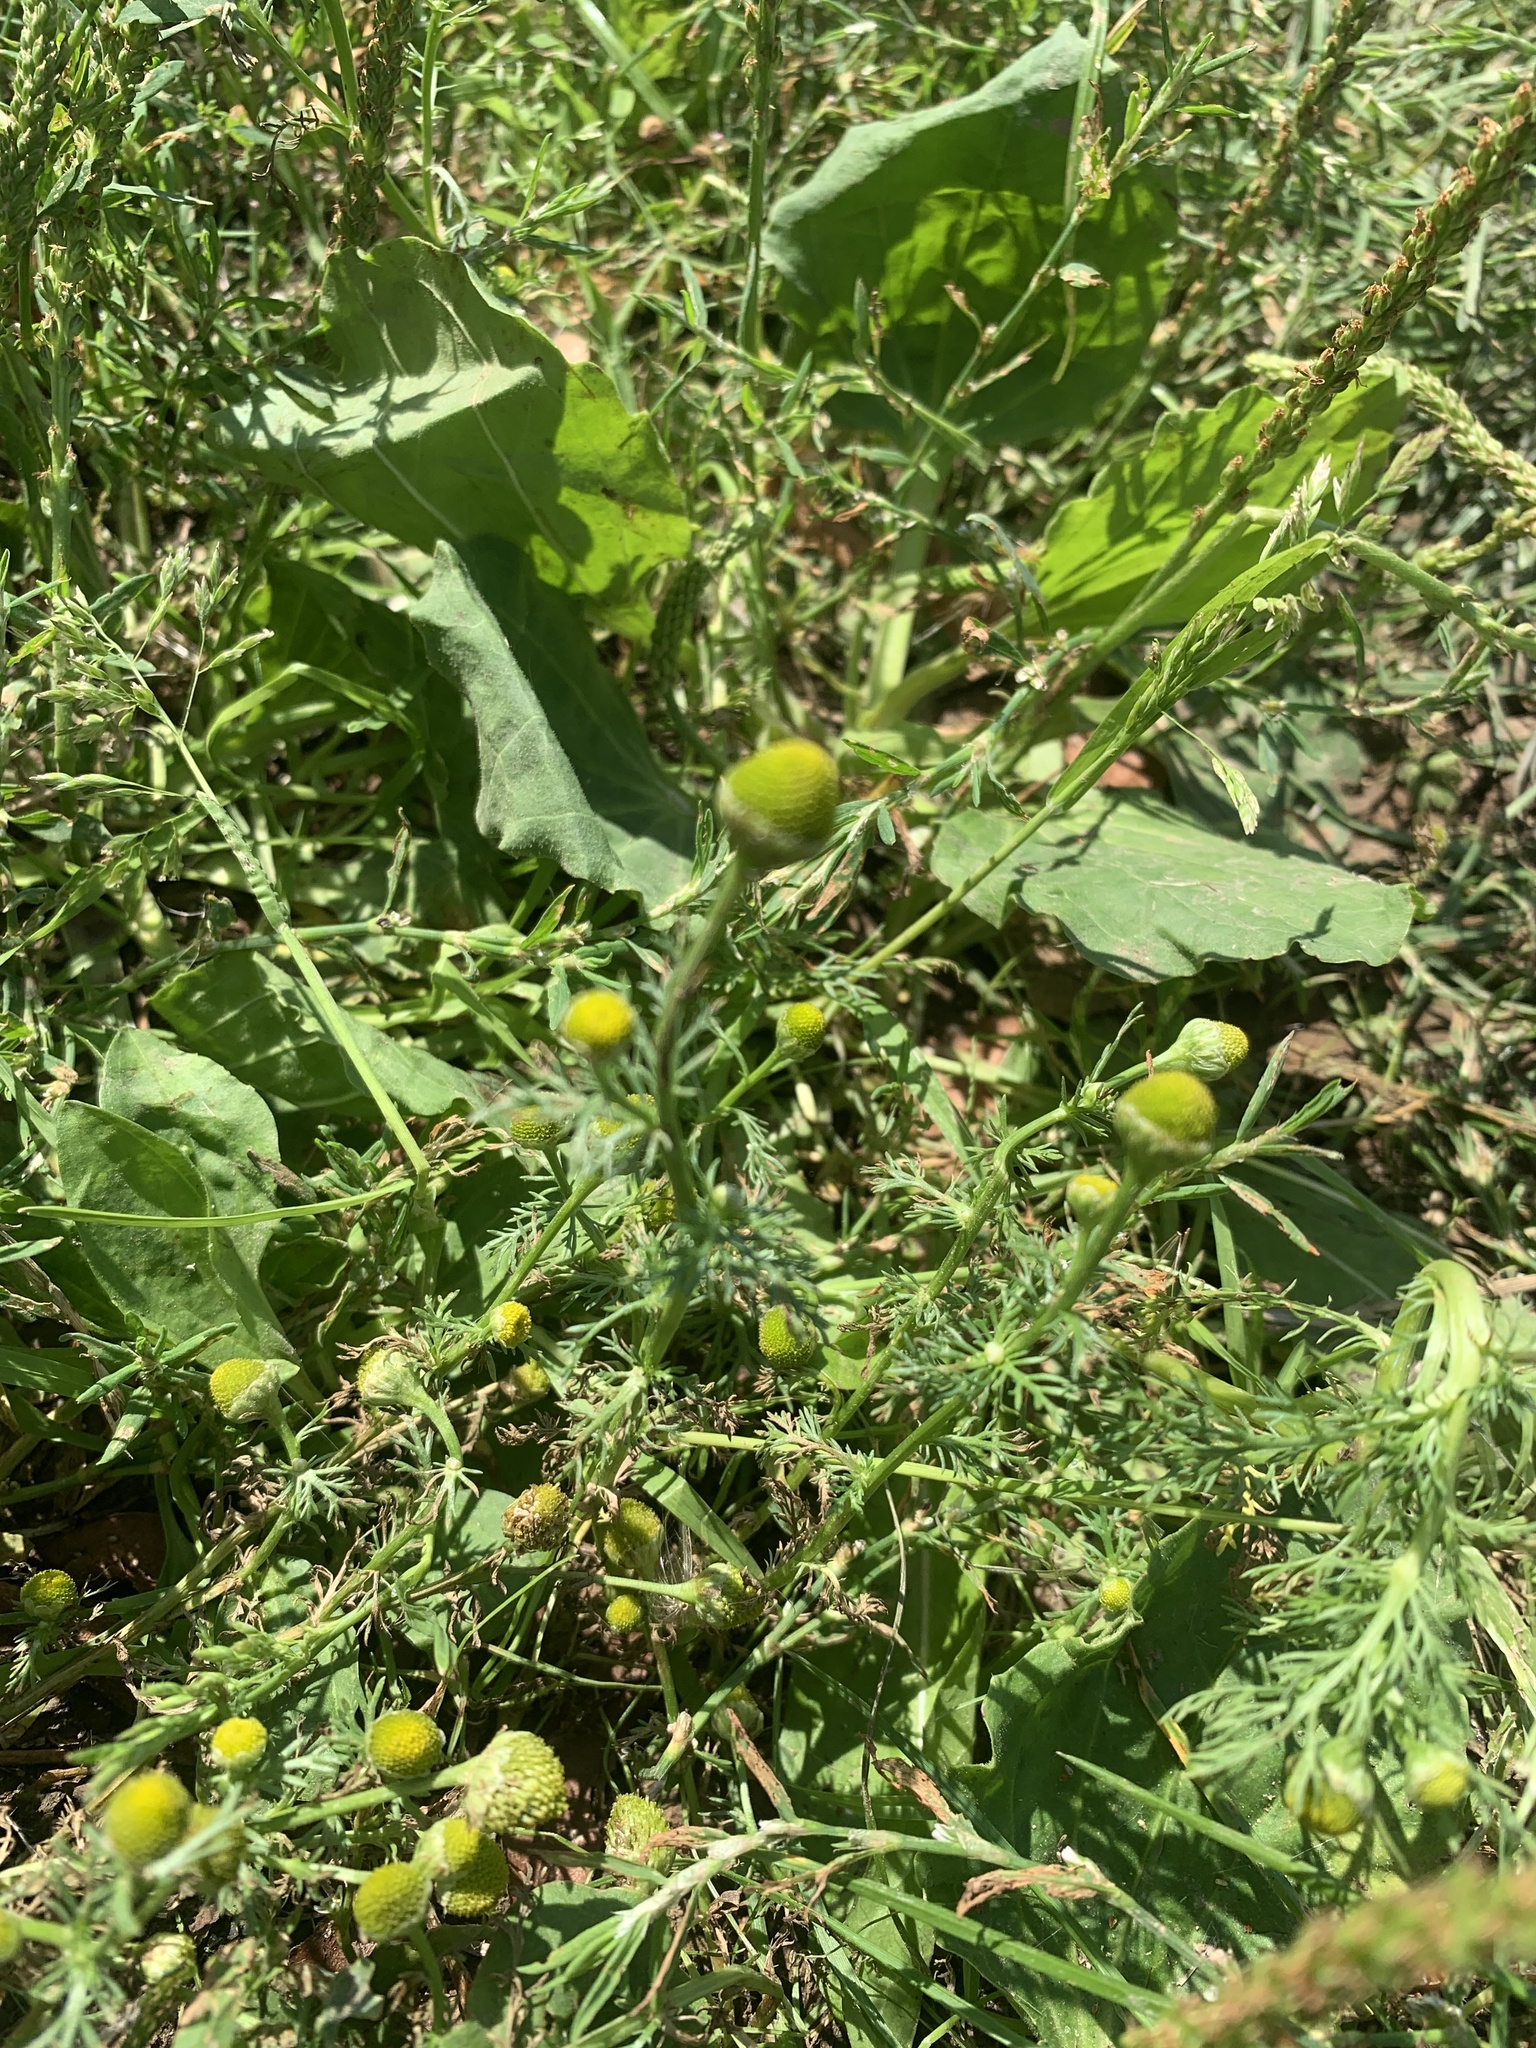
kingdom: Plantae
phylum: Tracheophyta
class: Magnoliopsida
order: Asterales
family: Asteraceae
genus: Matricaria
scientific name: Matricaria discoidea
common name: Disc mayweed
